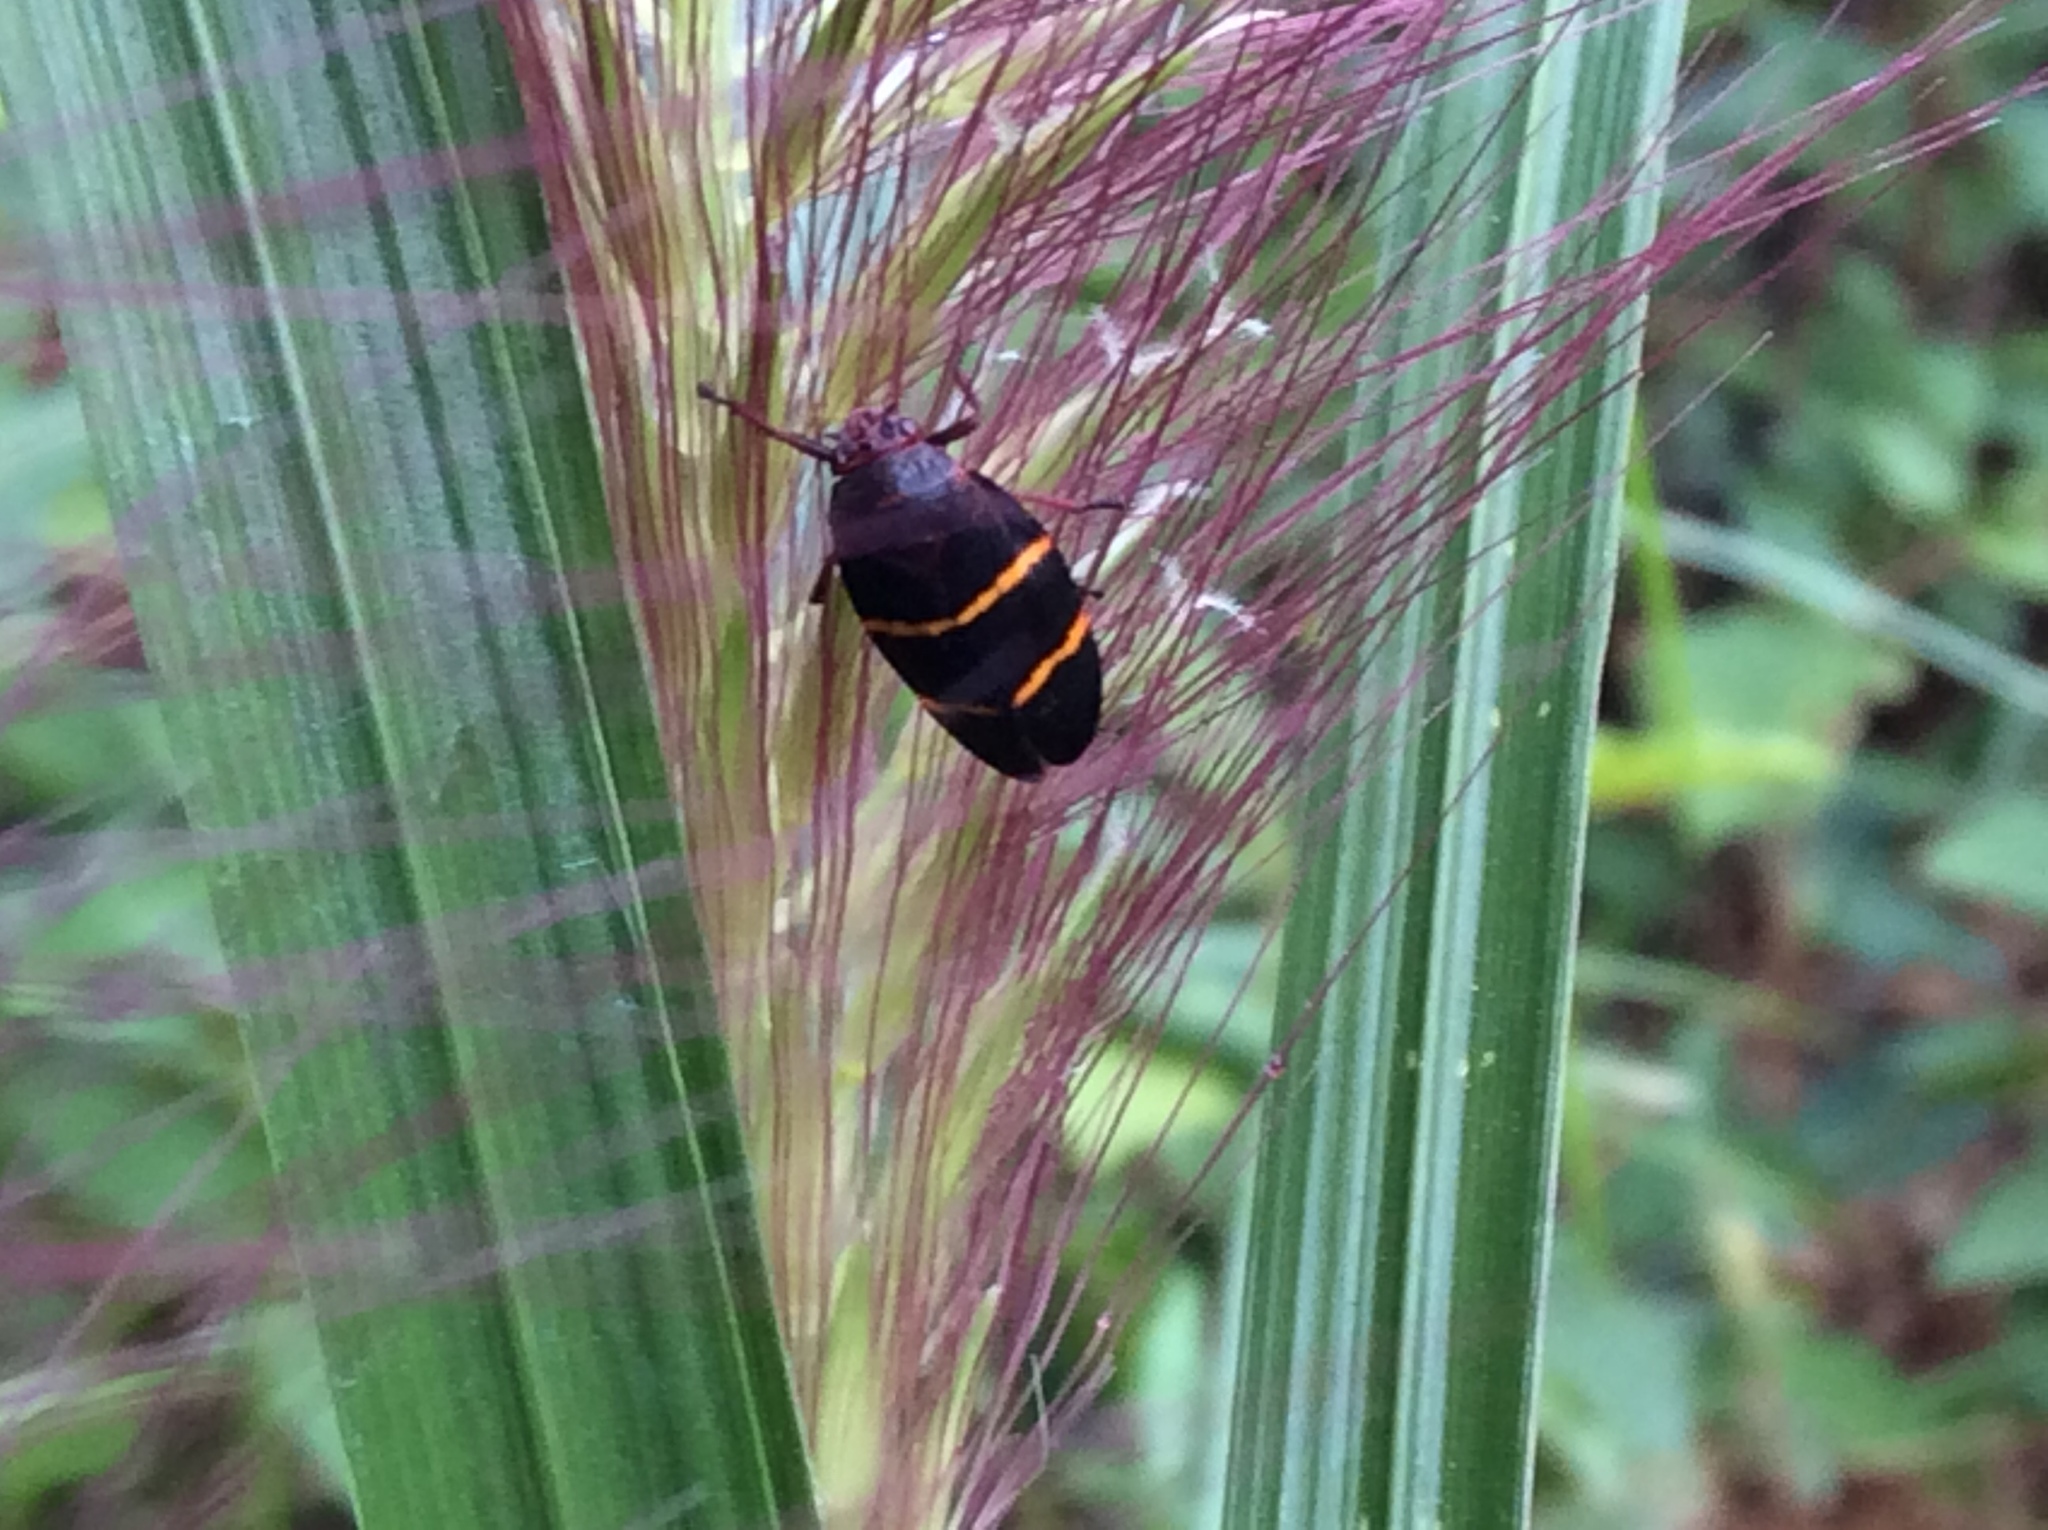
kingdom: Animalia
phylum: Arthropoda
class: Insecta
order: Hemiptera
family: Cercopidae
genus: Prosapia
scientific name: Prosapia bicincta
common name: Twolined spittlebug
